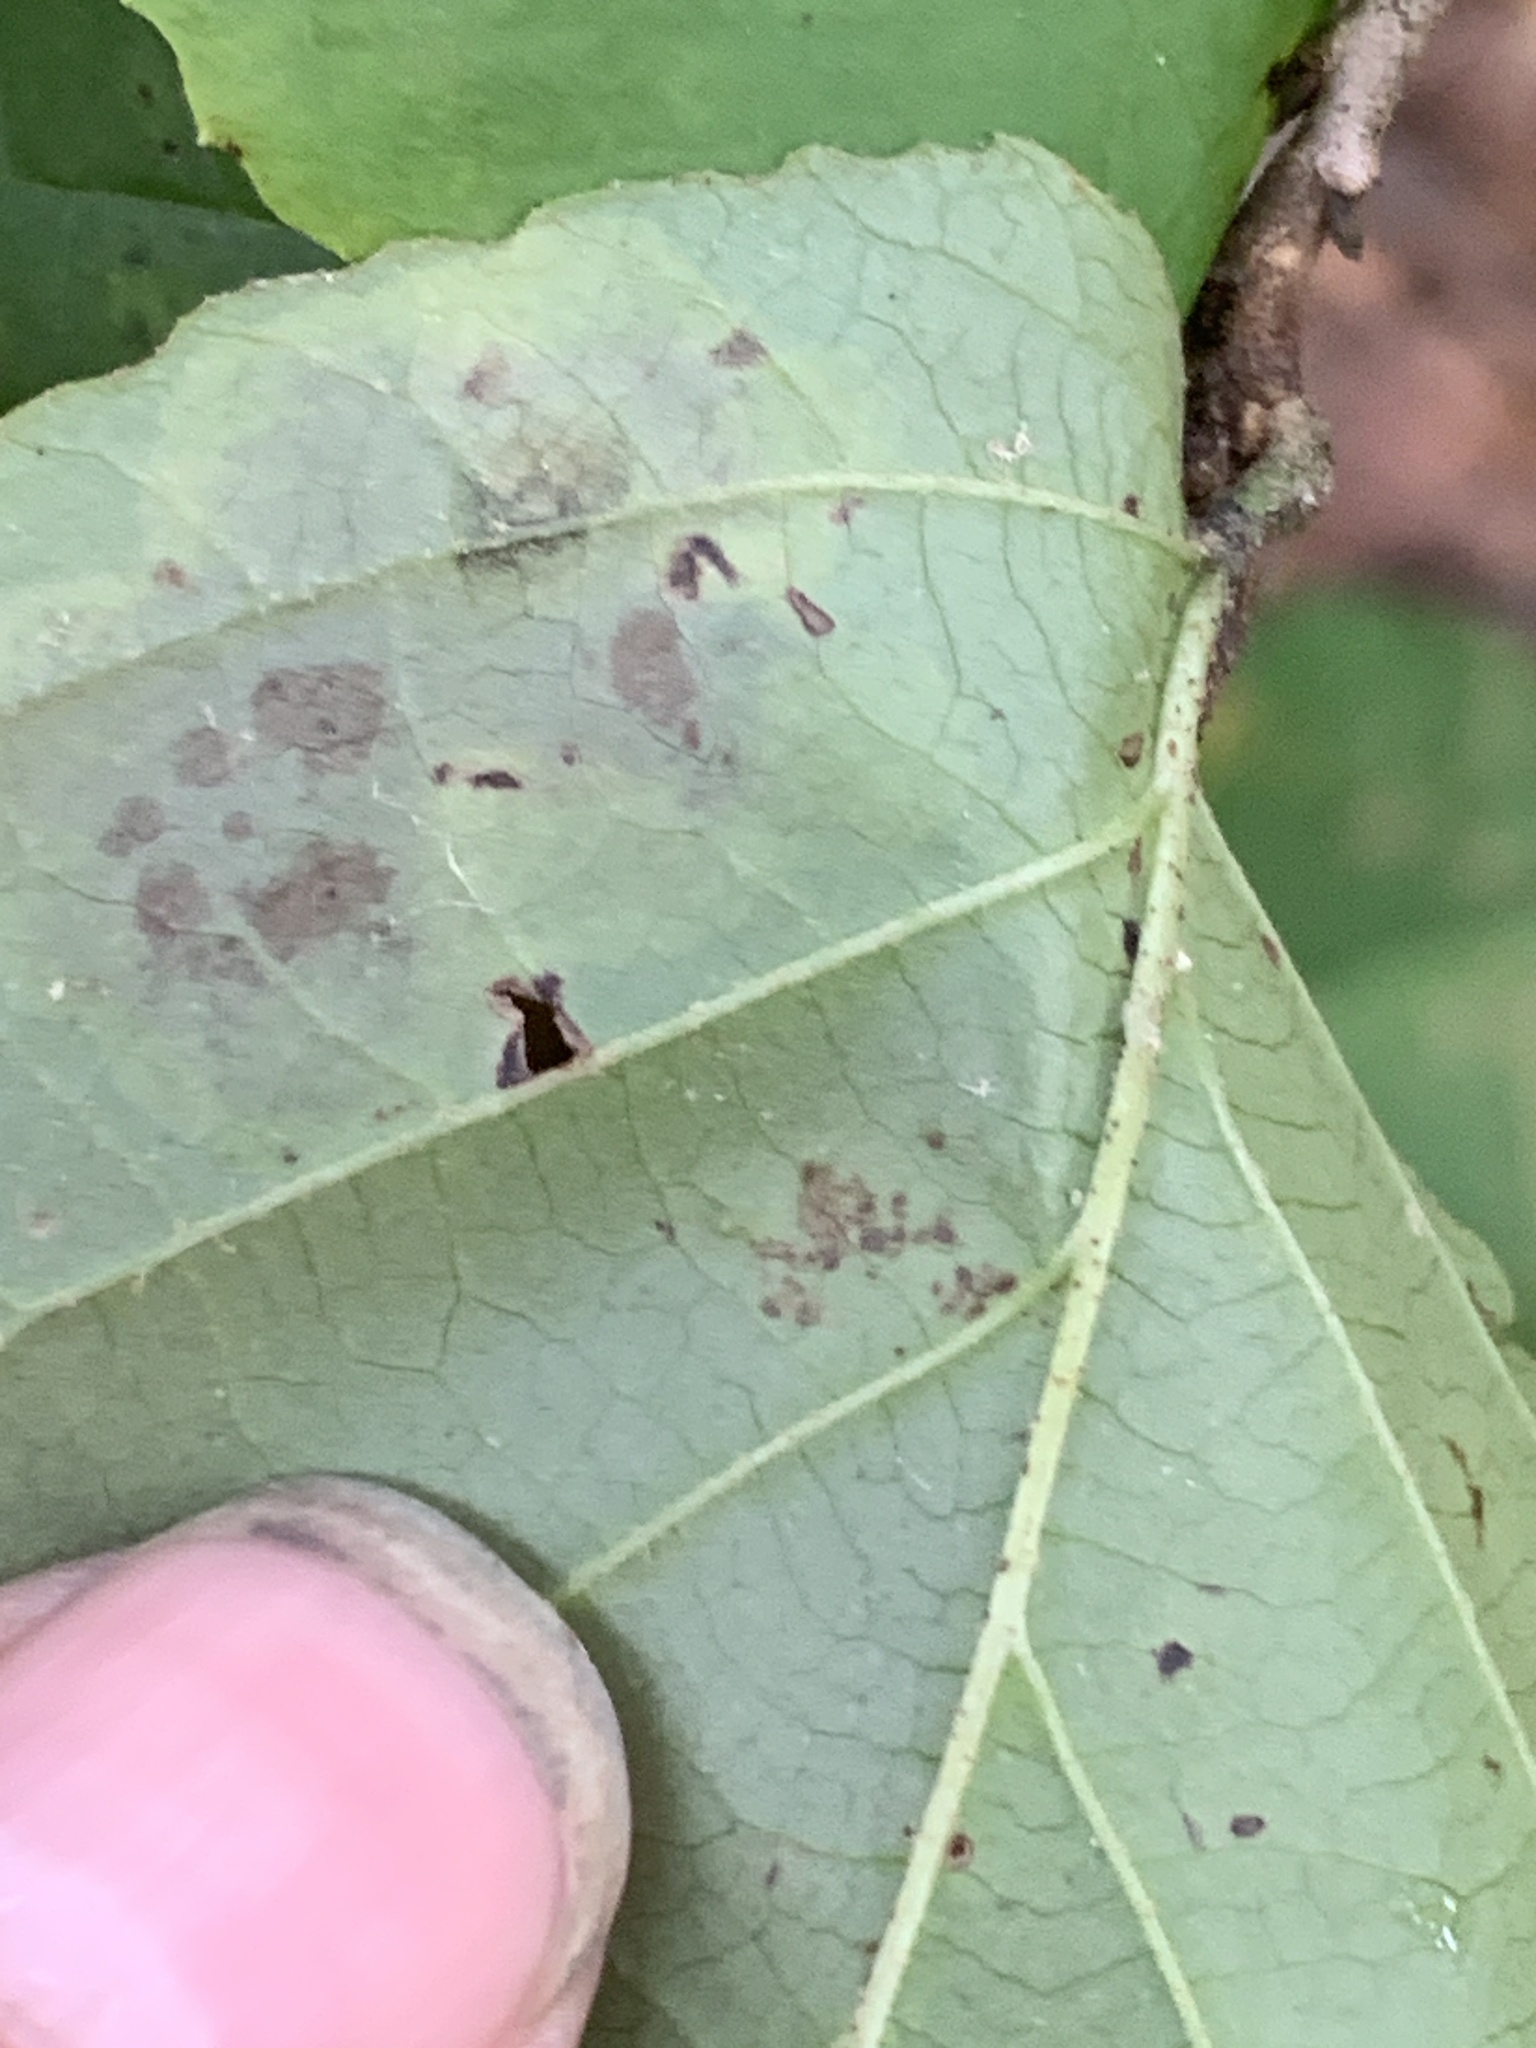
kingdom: Animalia
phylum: Arthropoda
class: Insecta
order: Lepidoptera
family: Gracillariidae
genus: Cameraria
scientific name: Cameraria hamameliella
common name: Witchhazel leafminer
